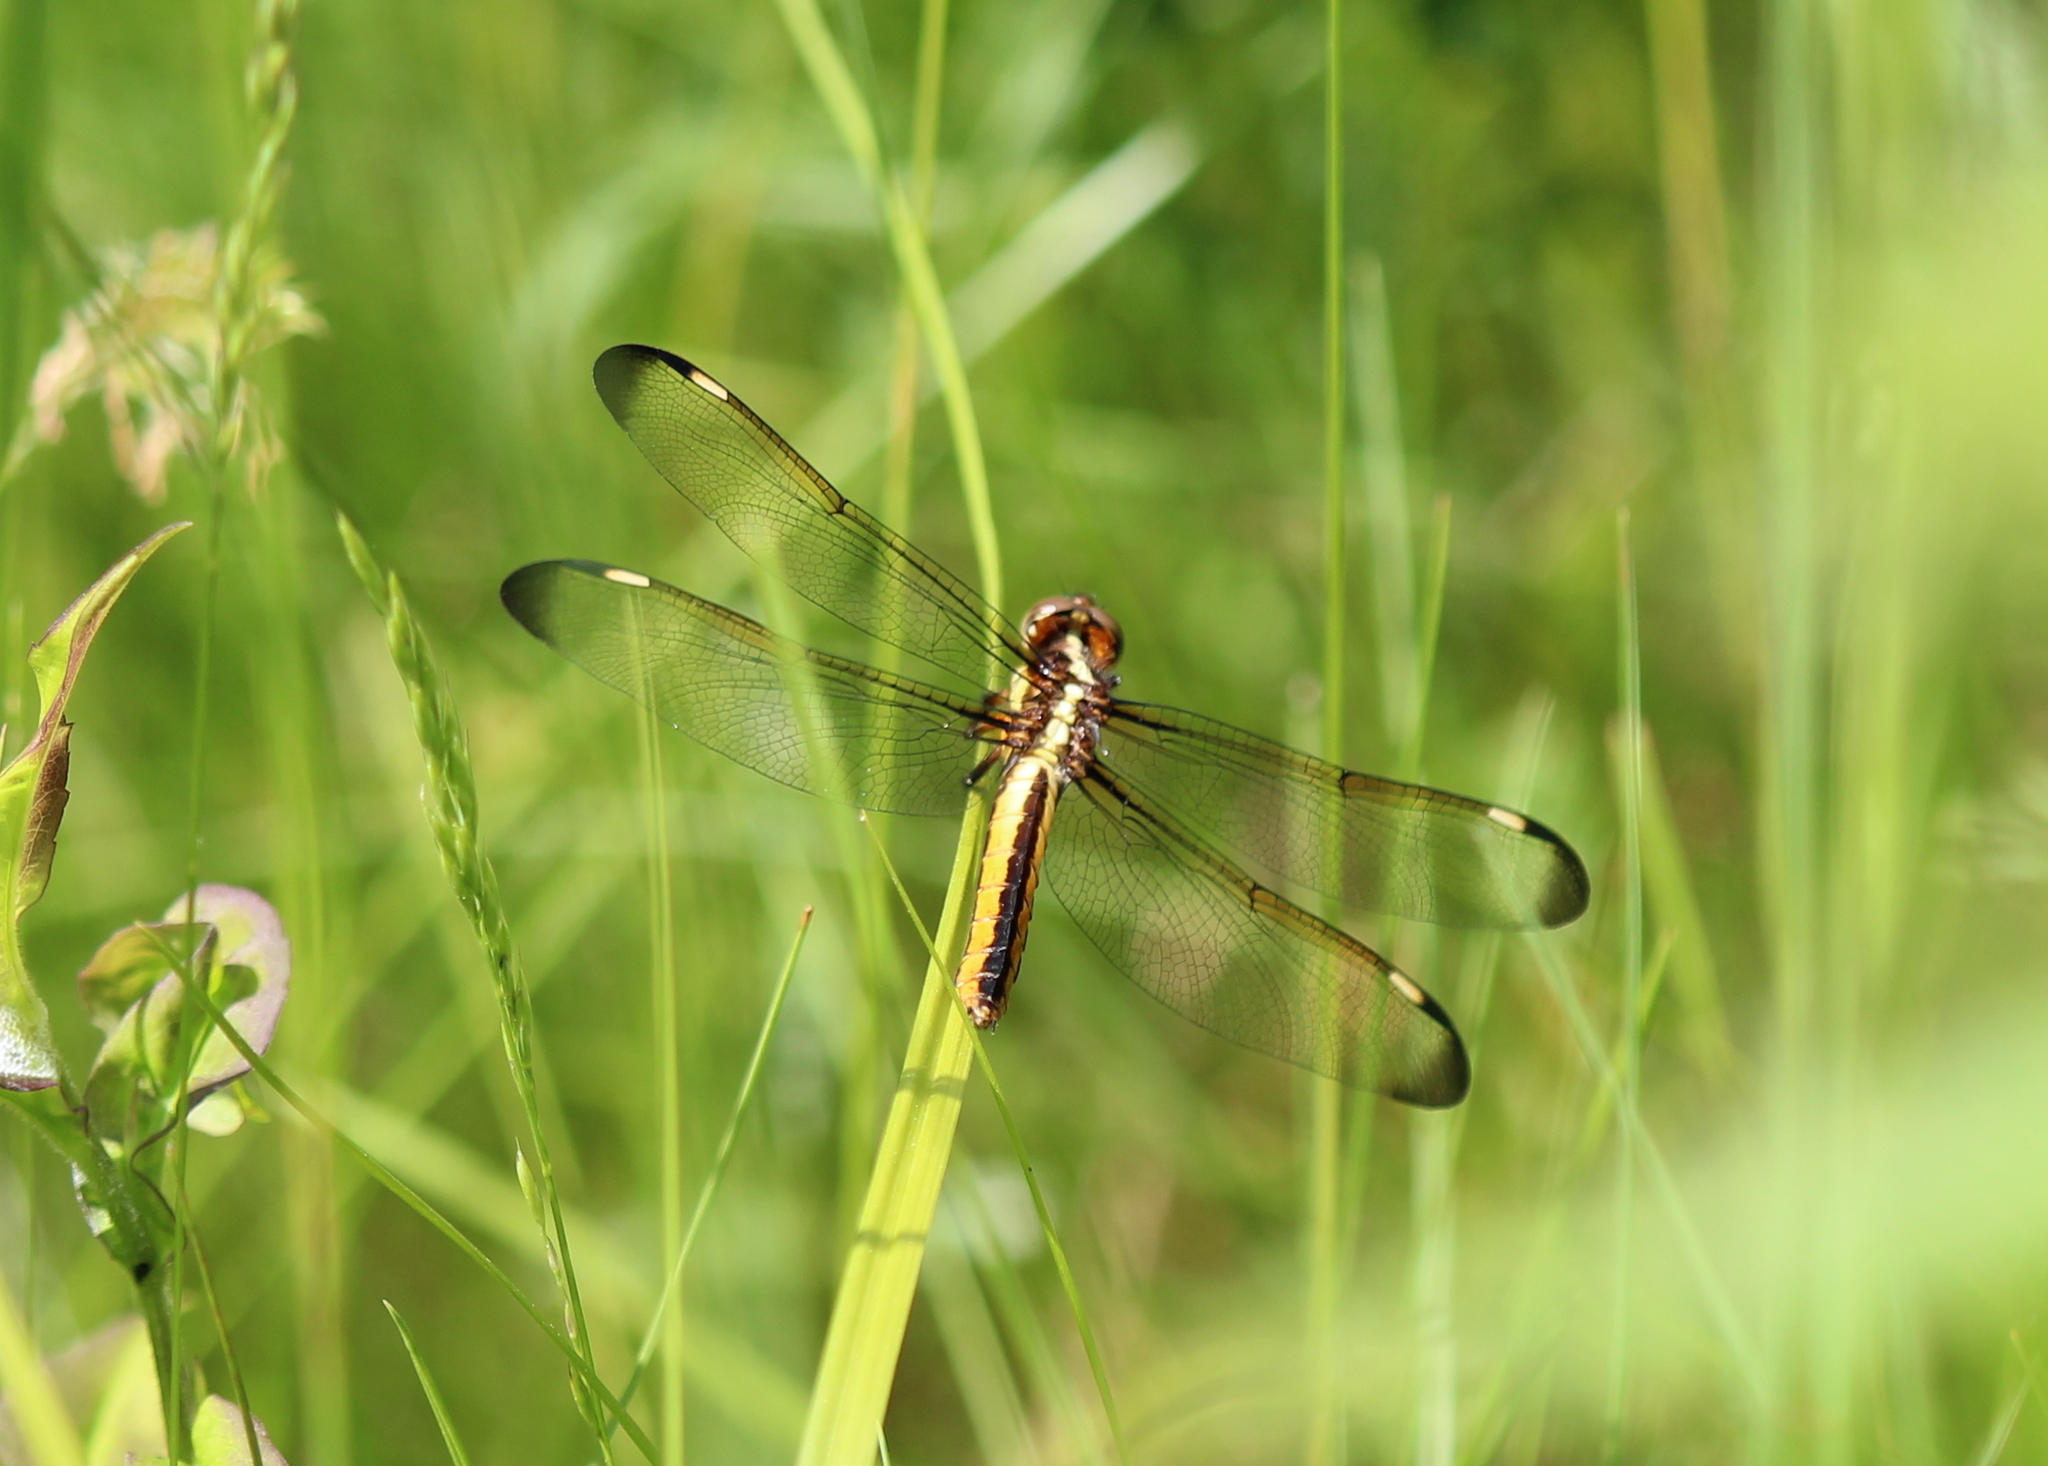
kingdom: Animalia
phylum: Arthropoda
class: Insecta
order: Odonata
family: Libellulidae
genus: Libellula
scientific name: Libellula cyanea
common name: Spangled skimmer
